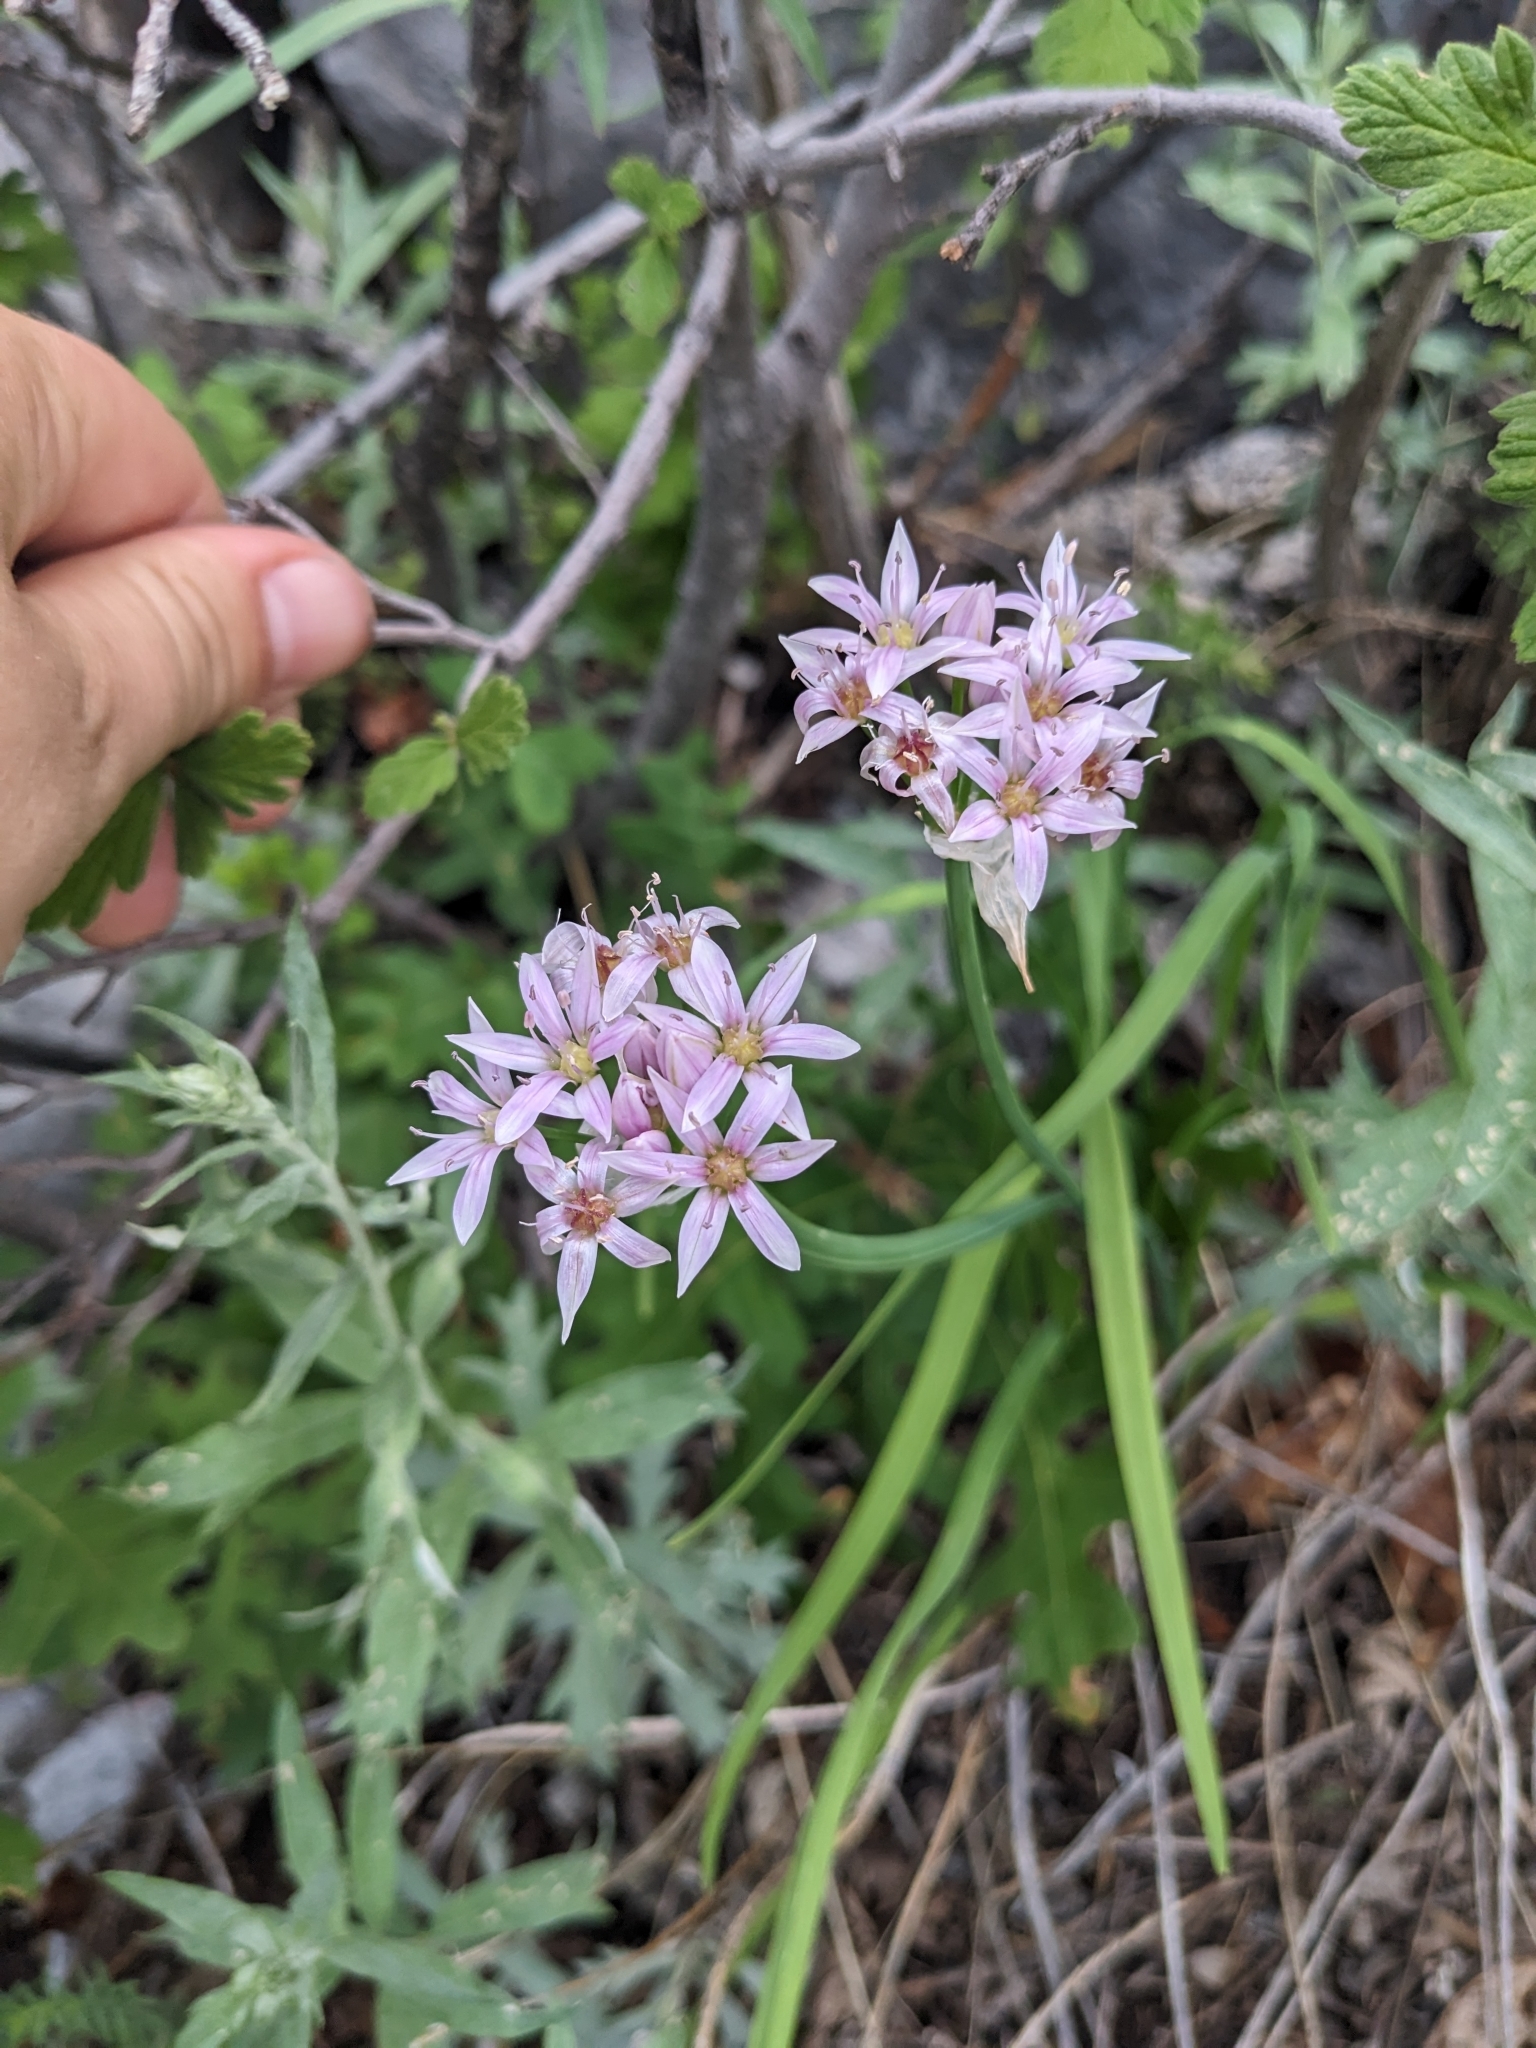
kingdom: Plantae
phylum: Tracheophyta
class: Liliopsida
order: Asparagales
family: Amaryllidaceae
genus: Allium
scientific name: Allium plummerae
